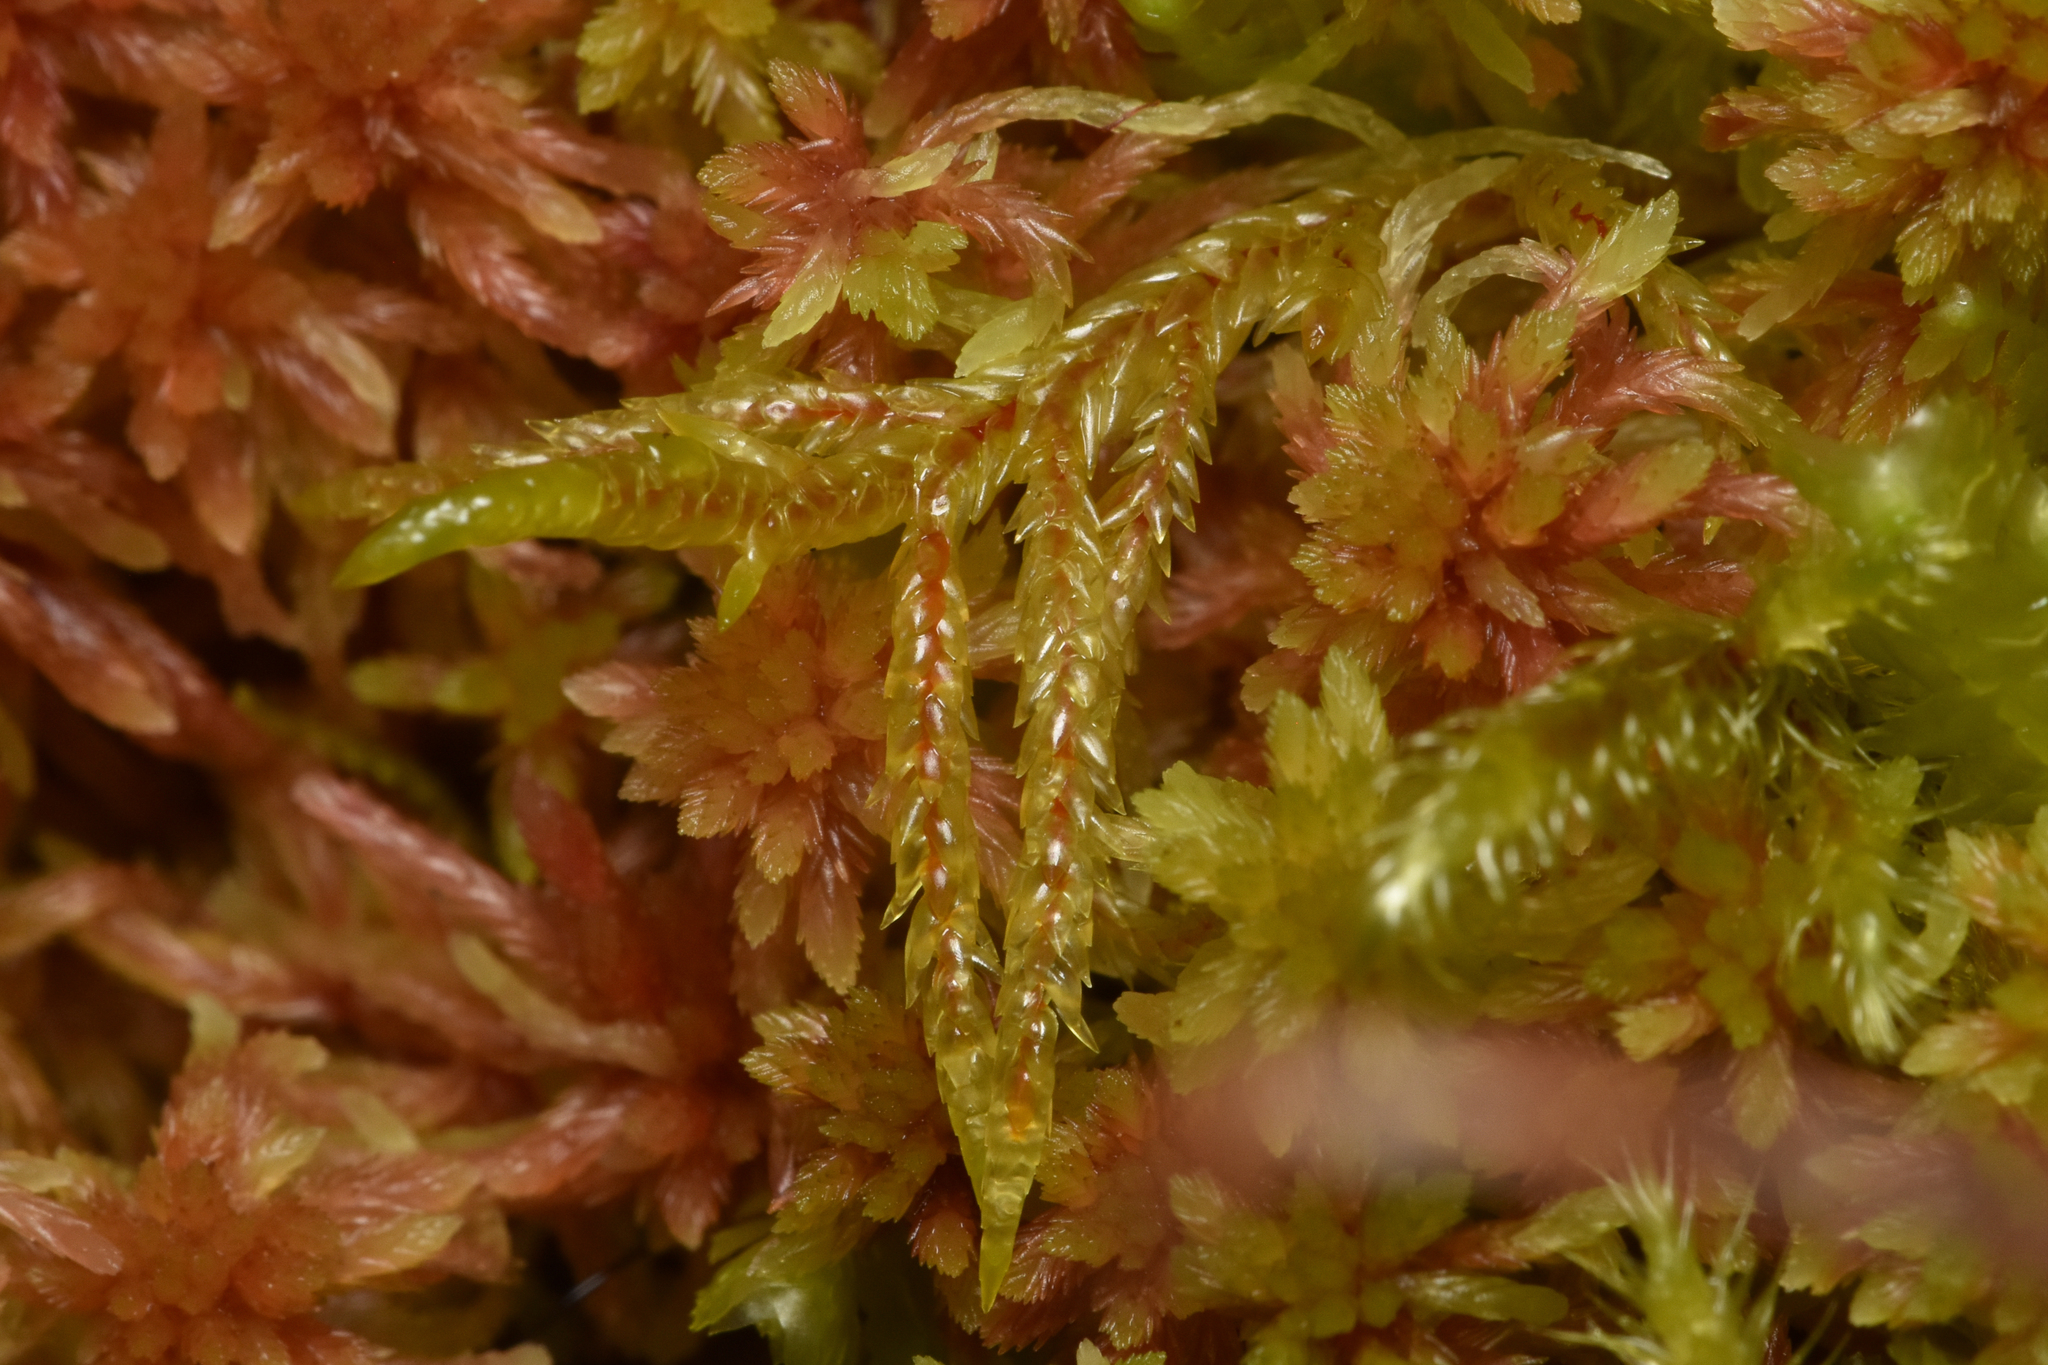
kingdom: Plantae
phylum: Bryophyta
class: Bryopsida
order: Hypnales
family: Hylocomiaceae
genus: Pleurozium
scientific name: Pleurozium schreberi
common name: Red-stemmed feather moss
